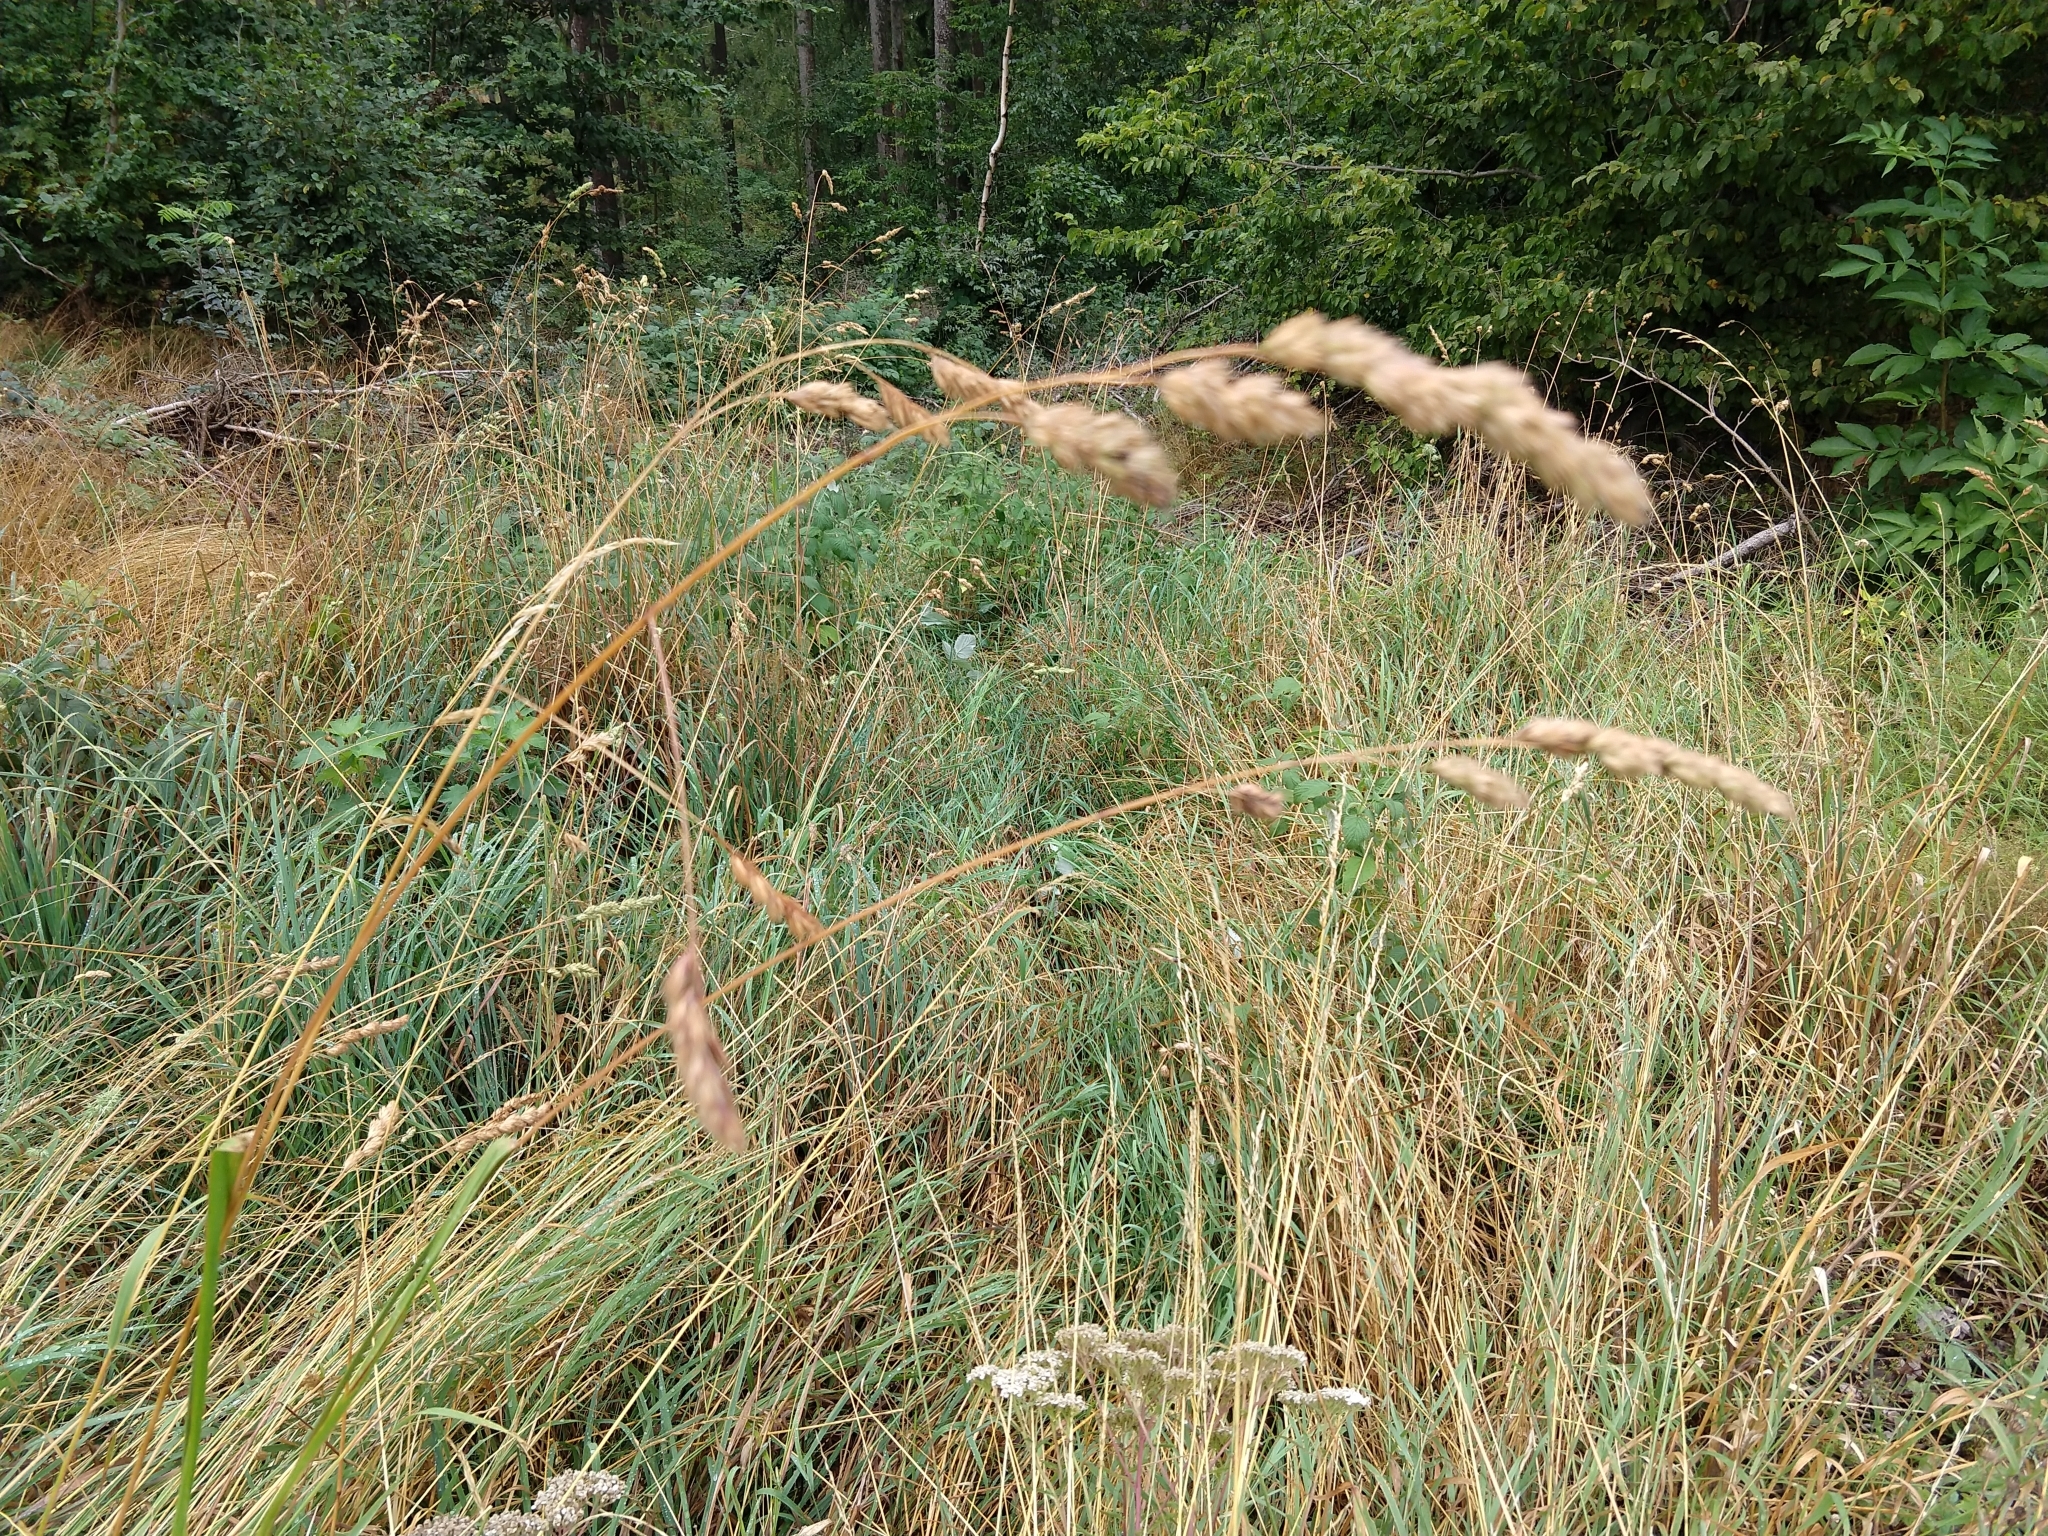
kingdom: Plantae
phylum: Tracheophyta
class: Liliopsida
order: Poales
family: Poaceae
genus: Dactylis
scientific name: Dactylis glomerata
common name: Orchardgrass
